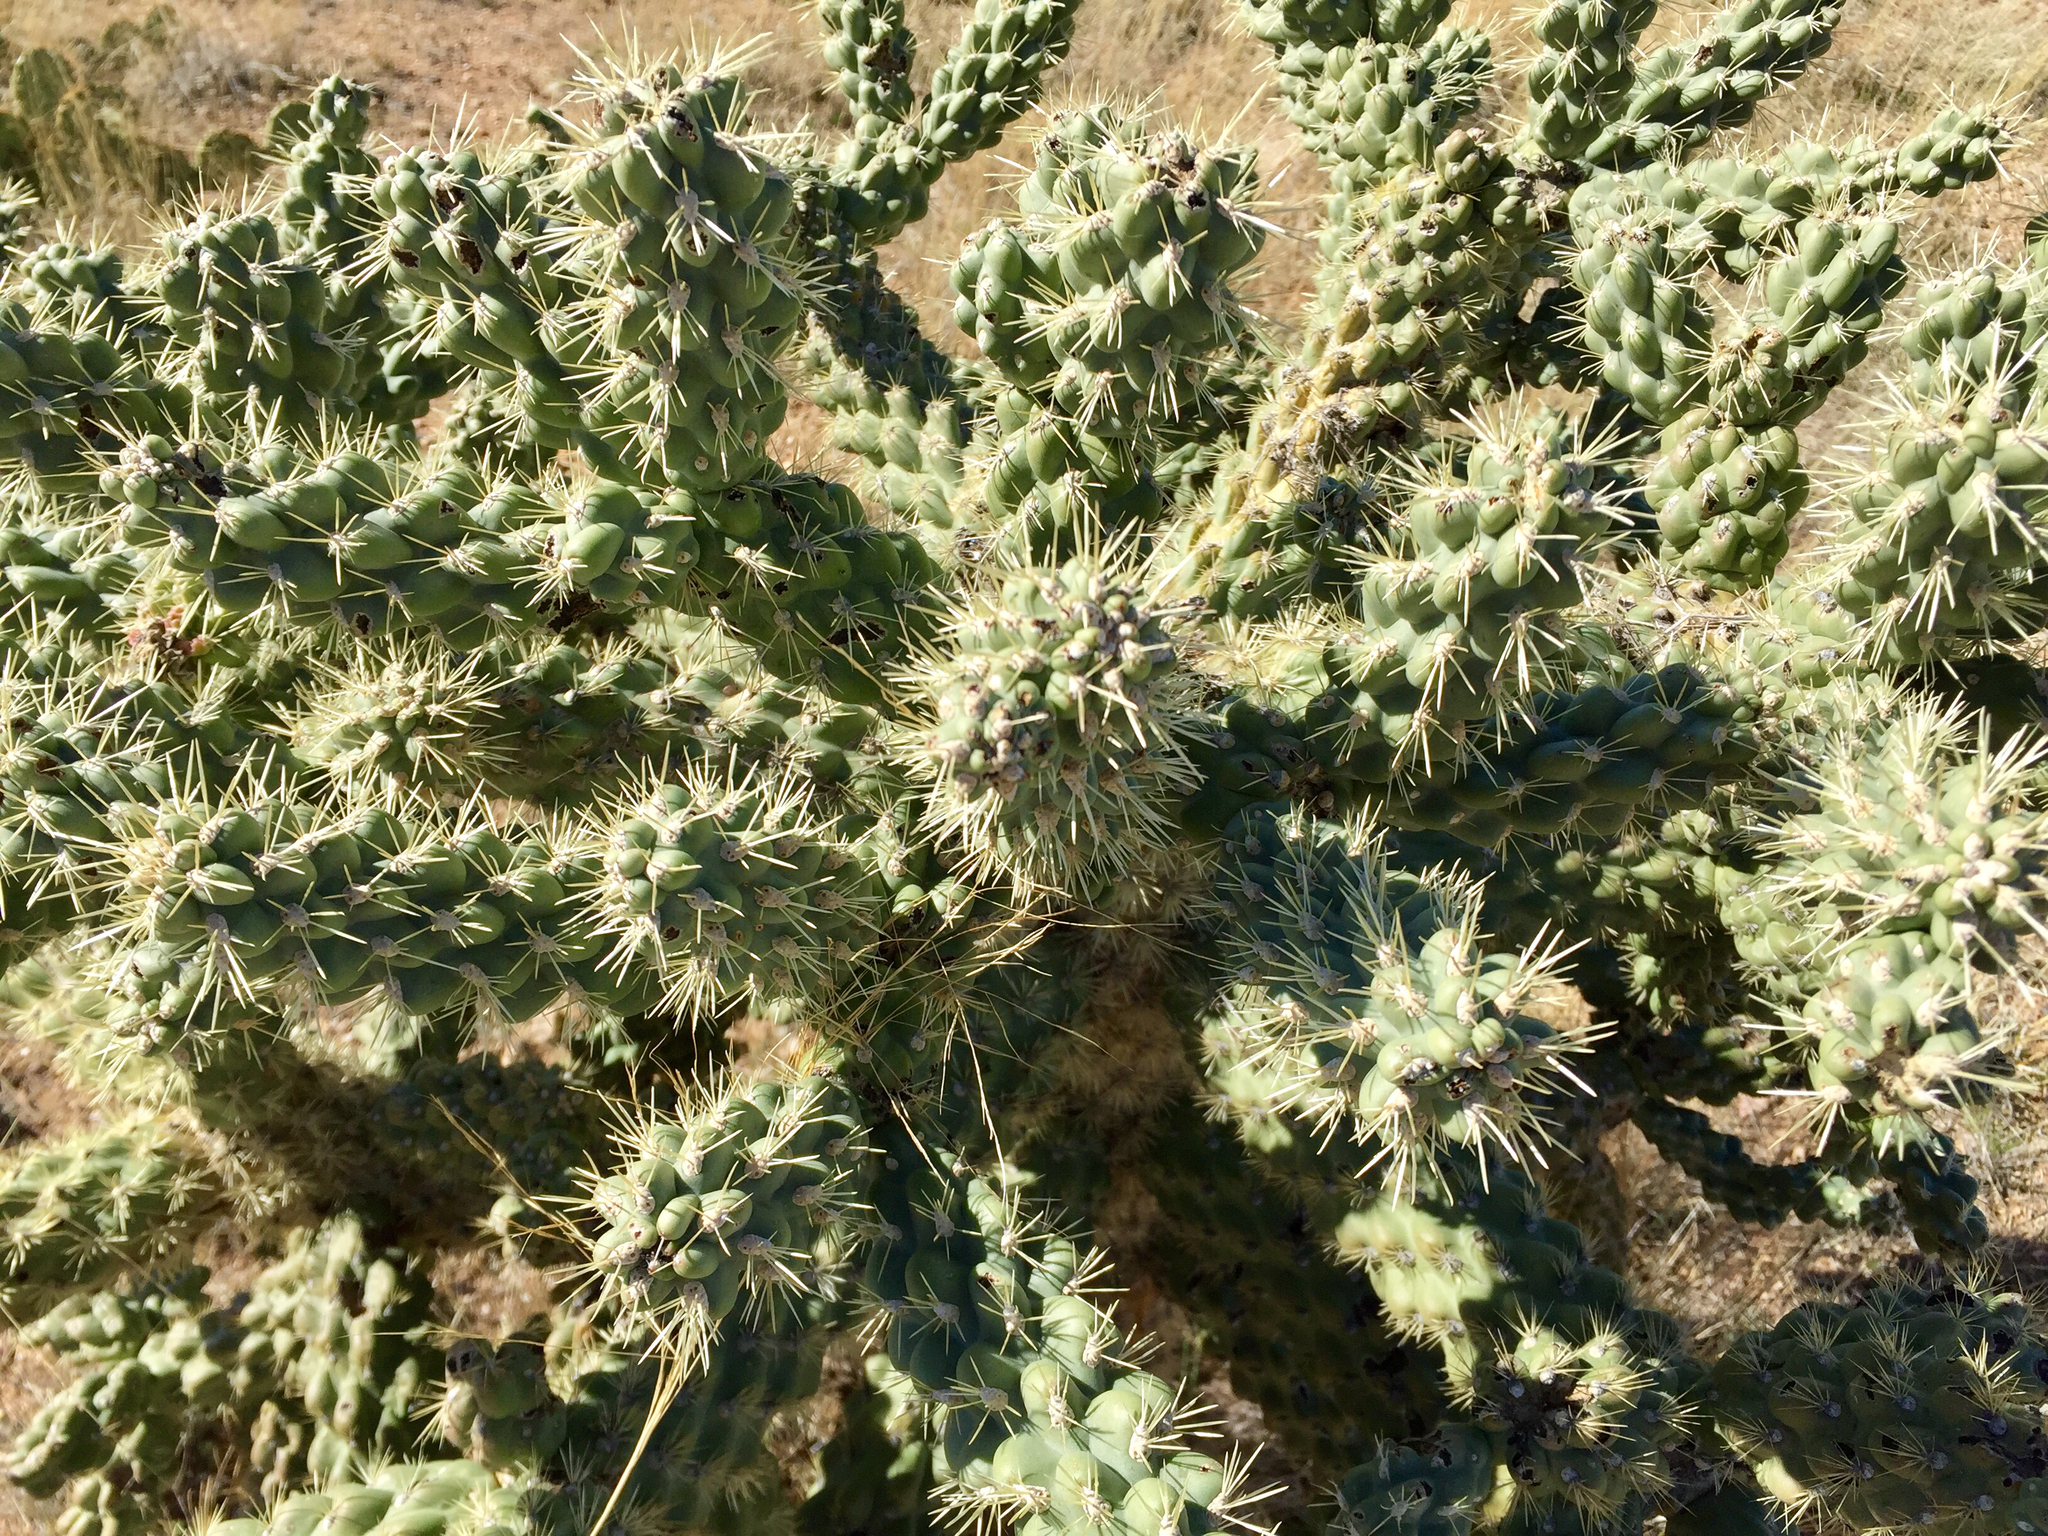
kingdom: Plantae
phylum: Tracheophyta
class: Magnoliopsida
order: Caryophyllales
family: Cactaceae
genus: Cylindropuntia
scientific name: Cylindropuntia fulgida
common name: Jumping cholla
